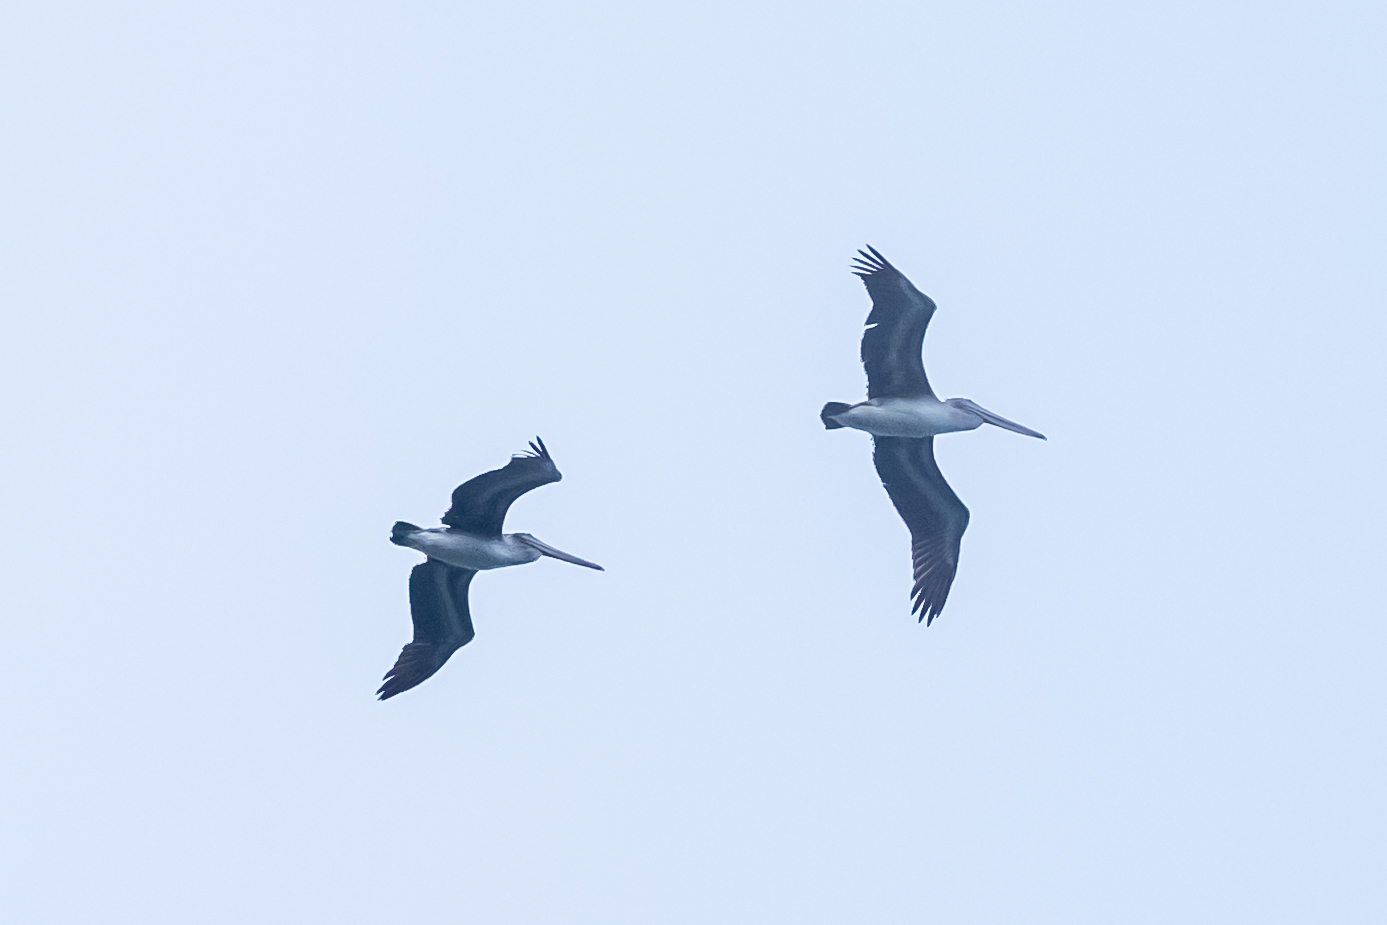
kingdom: Animalia
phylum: Chordata
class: Aves
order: Pelecaniformes
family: Pelecanidae
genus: Pelecanus
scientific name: Pelecanus occidentalis
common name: Brown pelican
